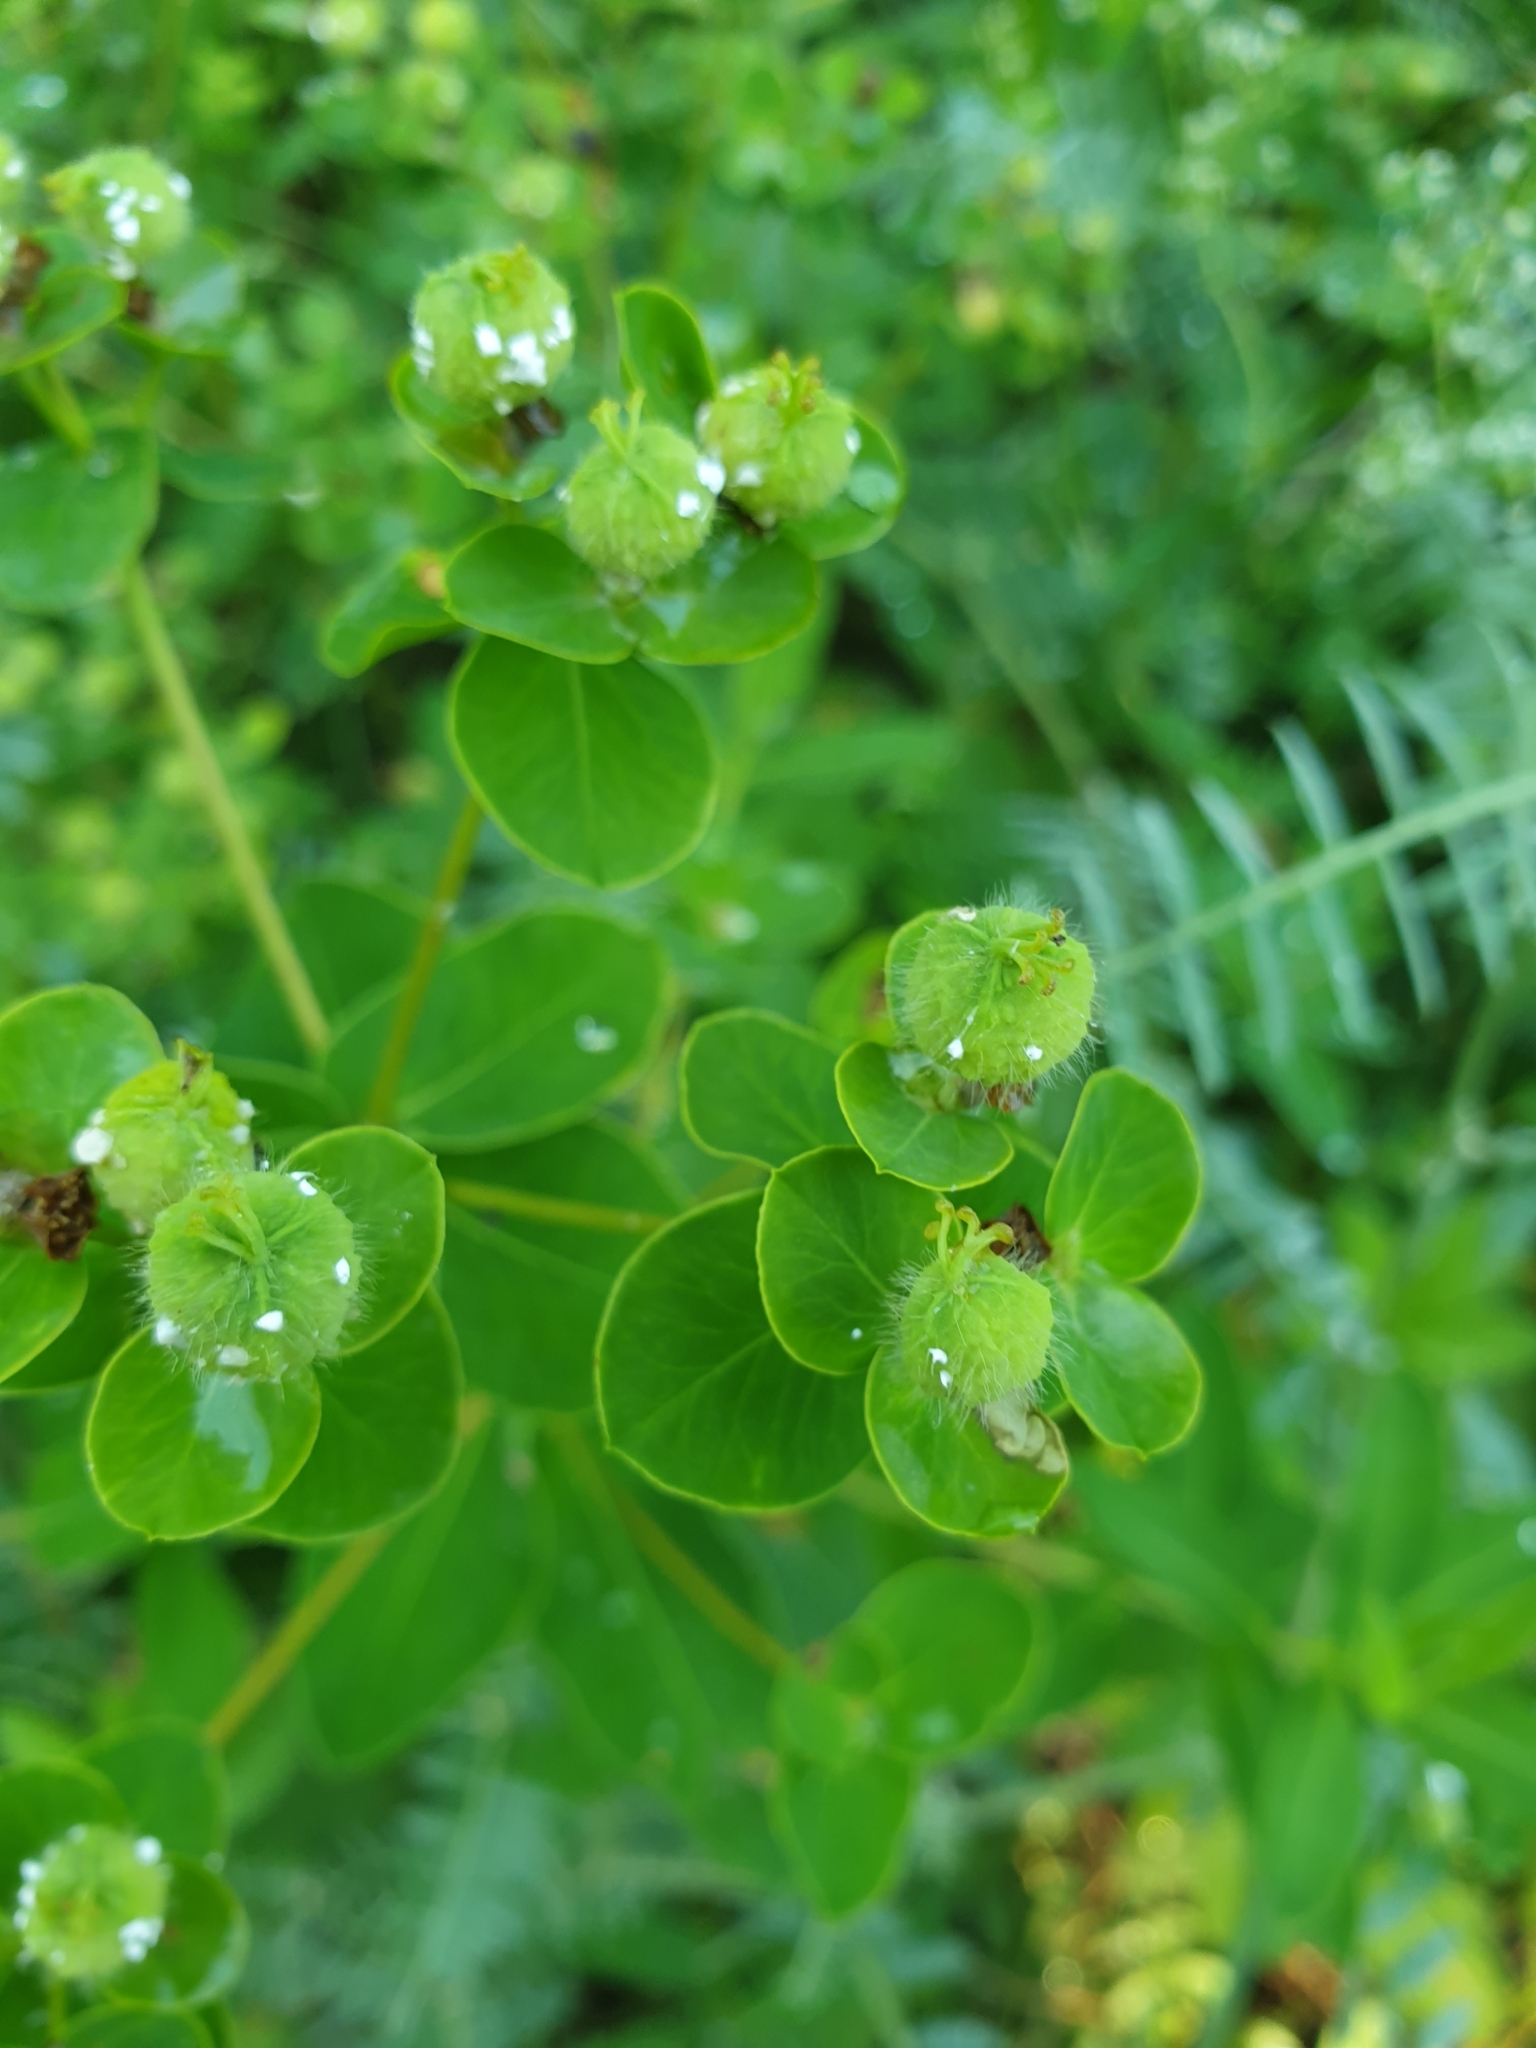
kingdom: Plantae
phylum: Tracheophyta
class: Magnoliopsida
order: Malpighiales
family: Euphorbiaceae
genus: Euphorbia
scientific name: Euphorbia tauricola
